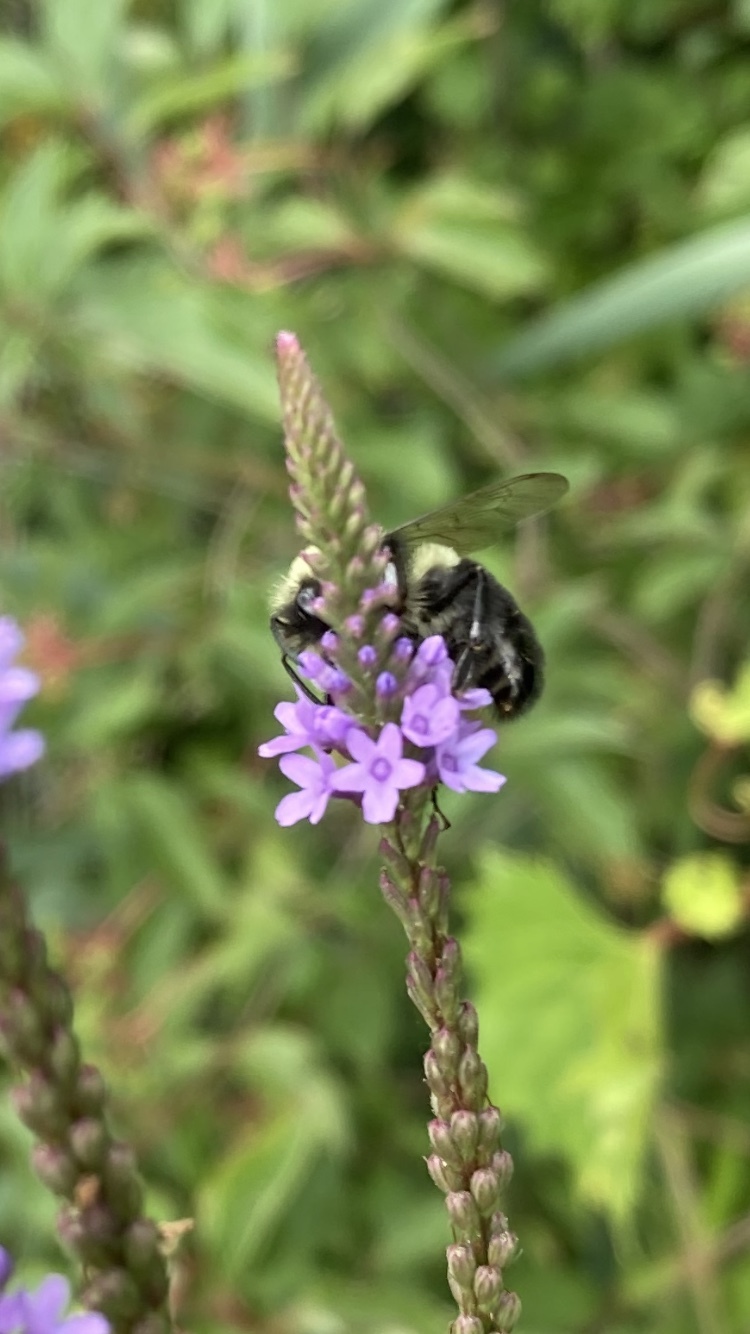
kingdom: Animalia
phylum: Arthropoda
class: Insecta
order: Hymenoptera
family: Apidae
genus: Bombus
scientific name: Bombus impatiens
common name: Common eastern bumble bee
